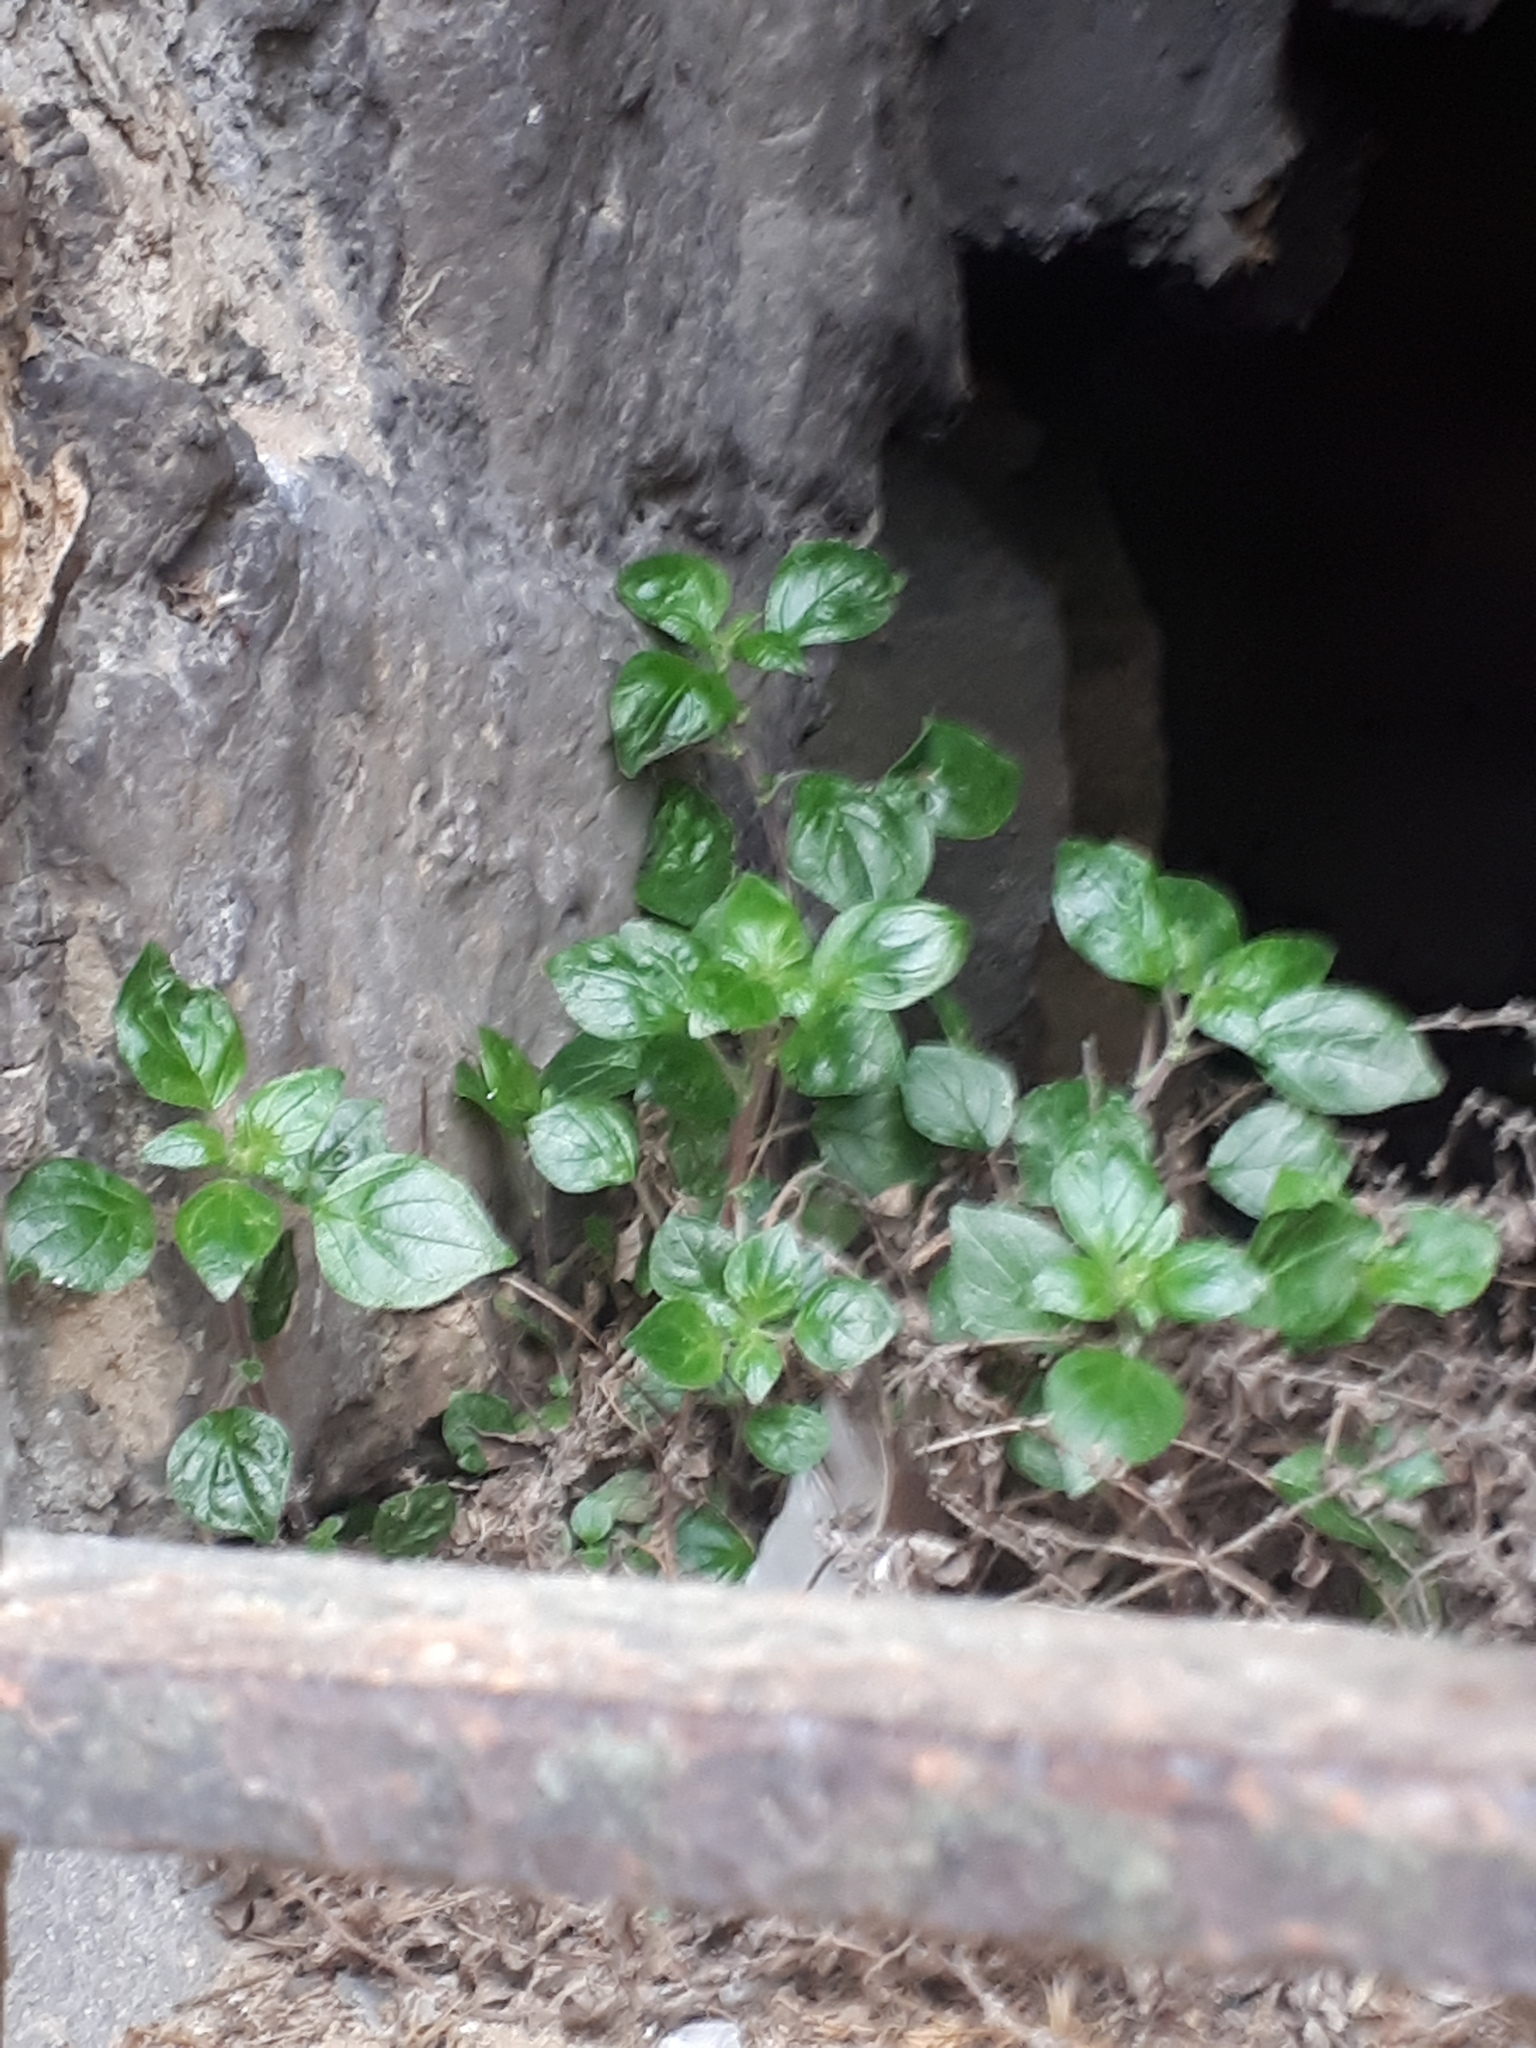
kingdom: Plantae
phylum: Tracheophyta
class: Magnoliopsida
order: Rosales
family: Urticaceae
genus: Parietaria
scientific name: Parietaria judaica
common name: Pellitory-of-the-wall
